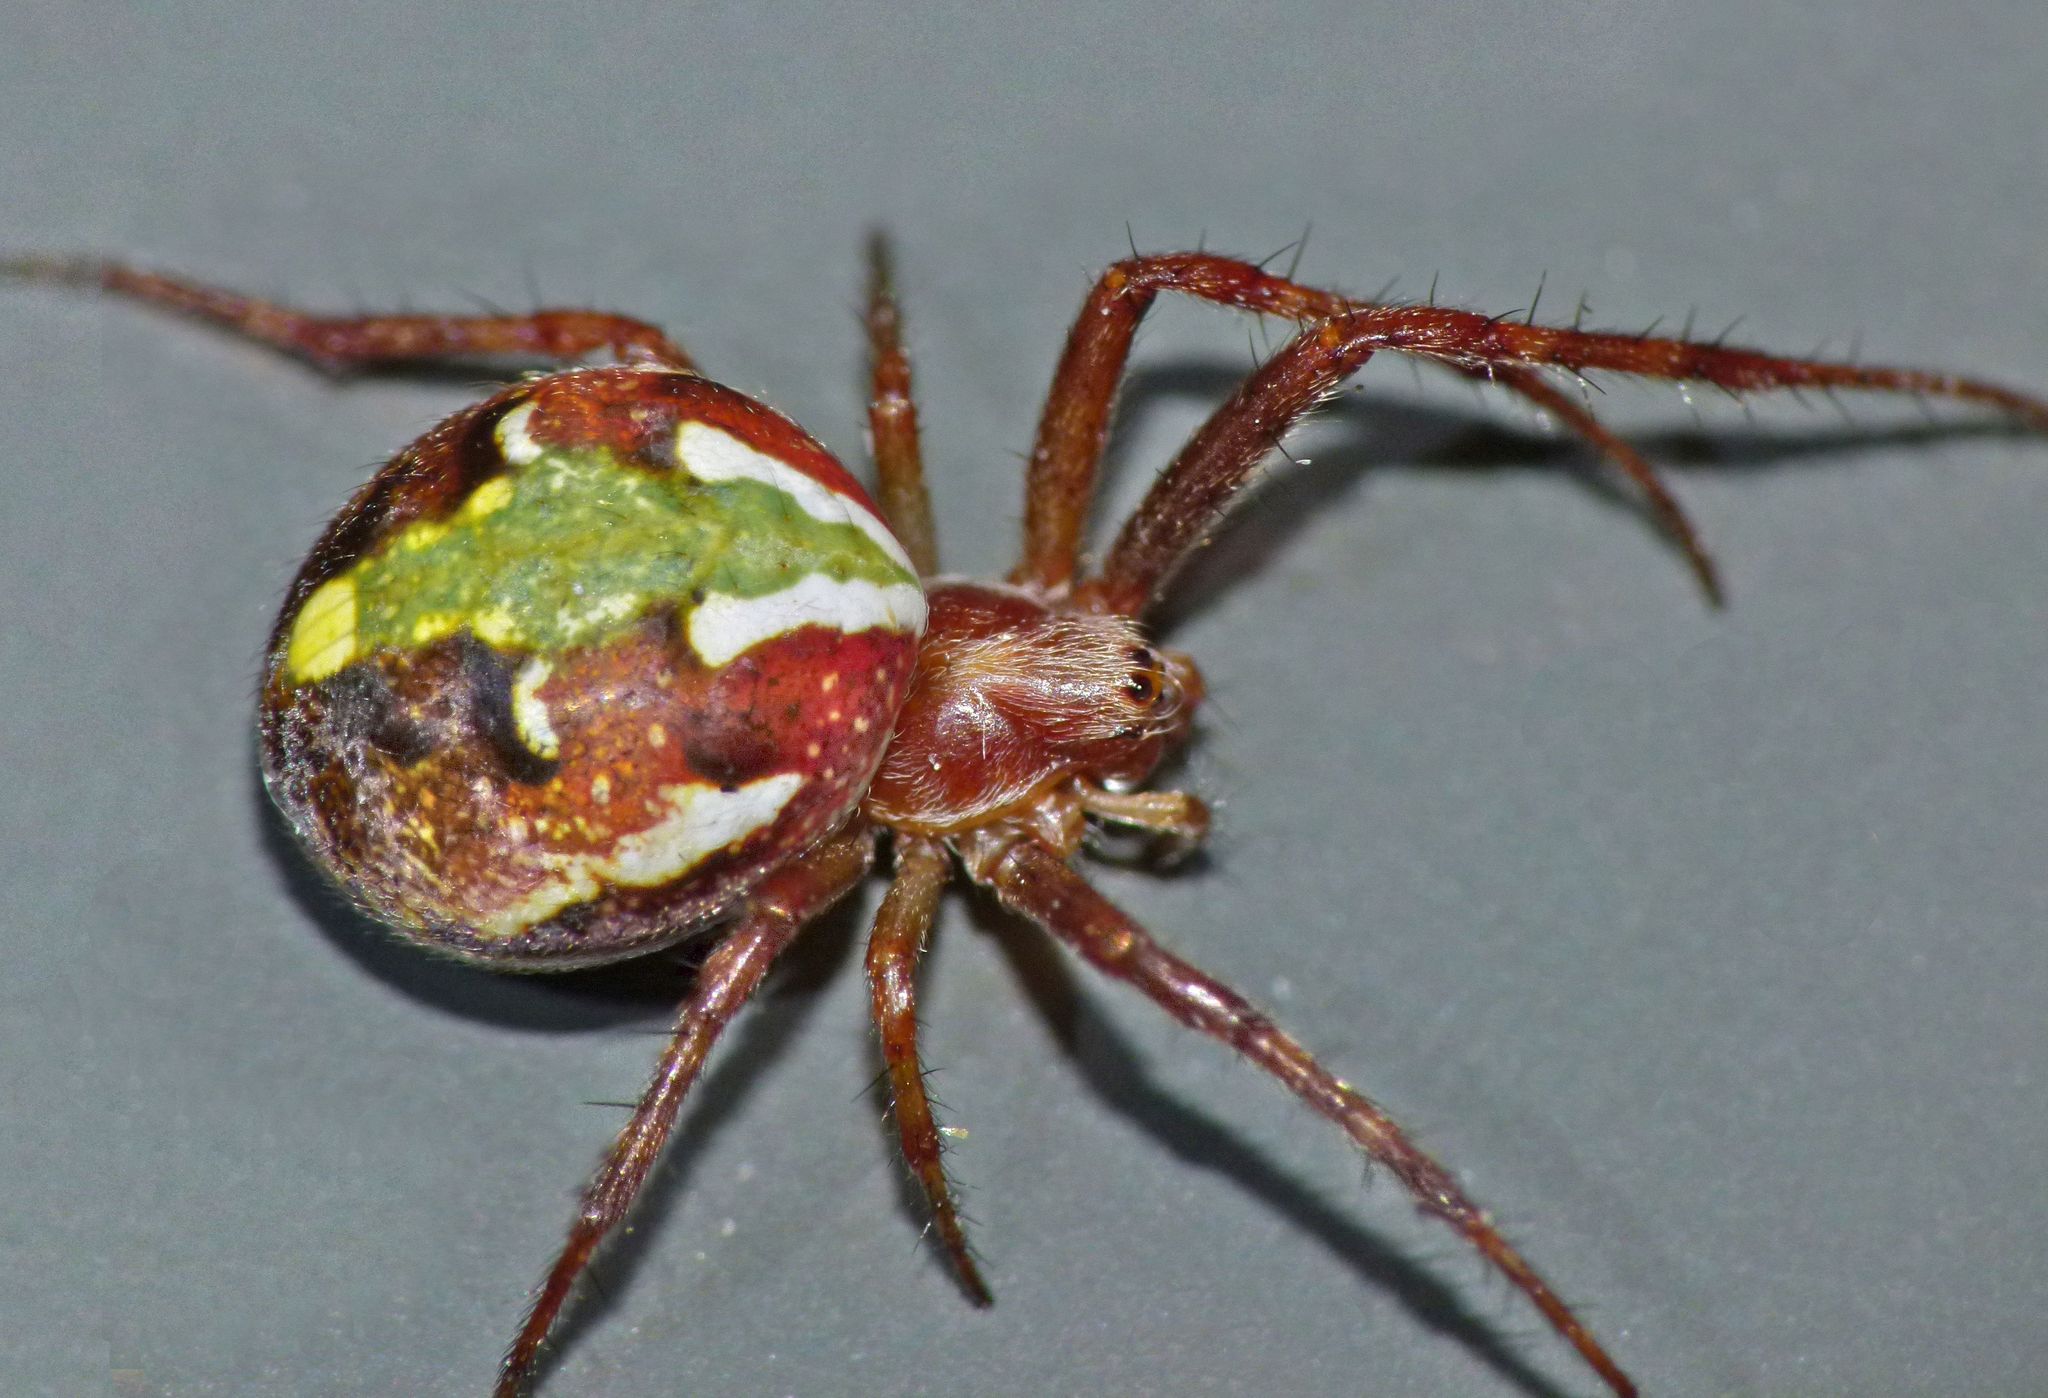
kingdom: Animalia
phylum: Arthropoda
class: Arachnida
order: Araneae
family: Araneidae
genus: Novaranea
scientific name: Novaranea queribunda
